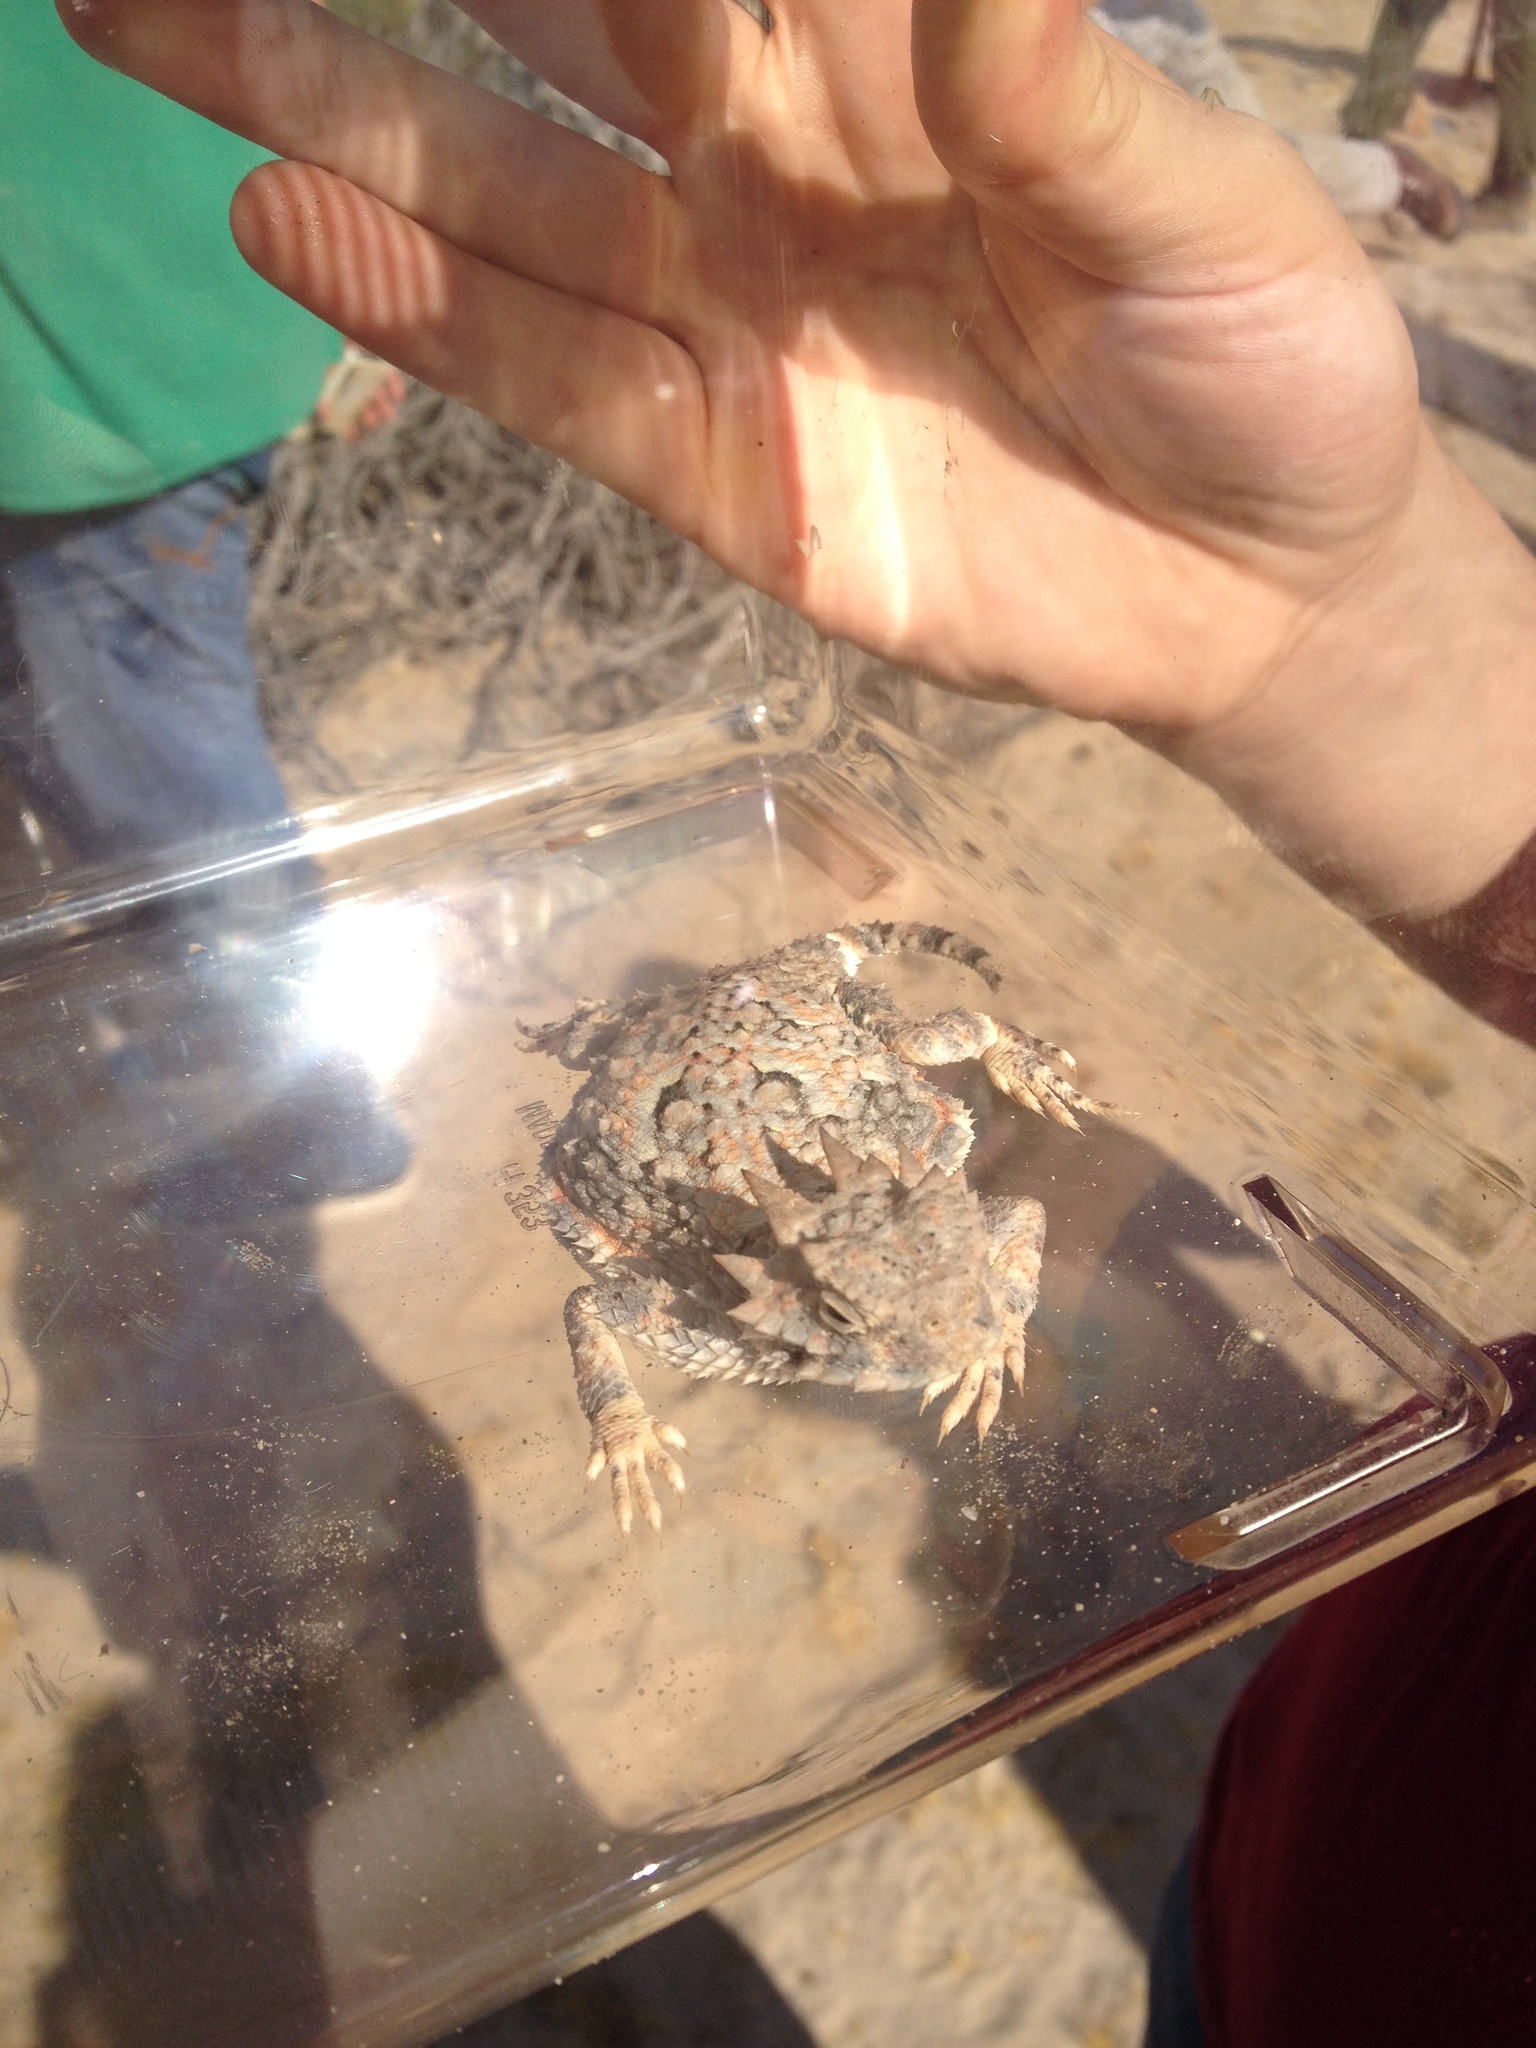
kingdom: Animalia
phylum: Chordata
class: Squamata
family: Phrynosomatidae
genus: Phrynosoma
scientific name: Phrynosoma platyrhinos
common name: Desert horned lizard
